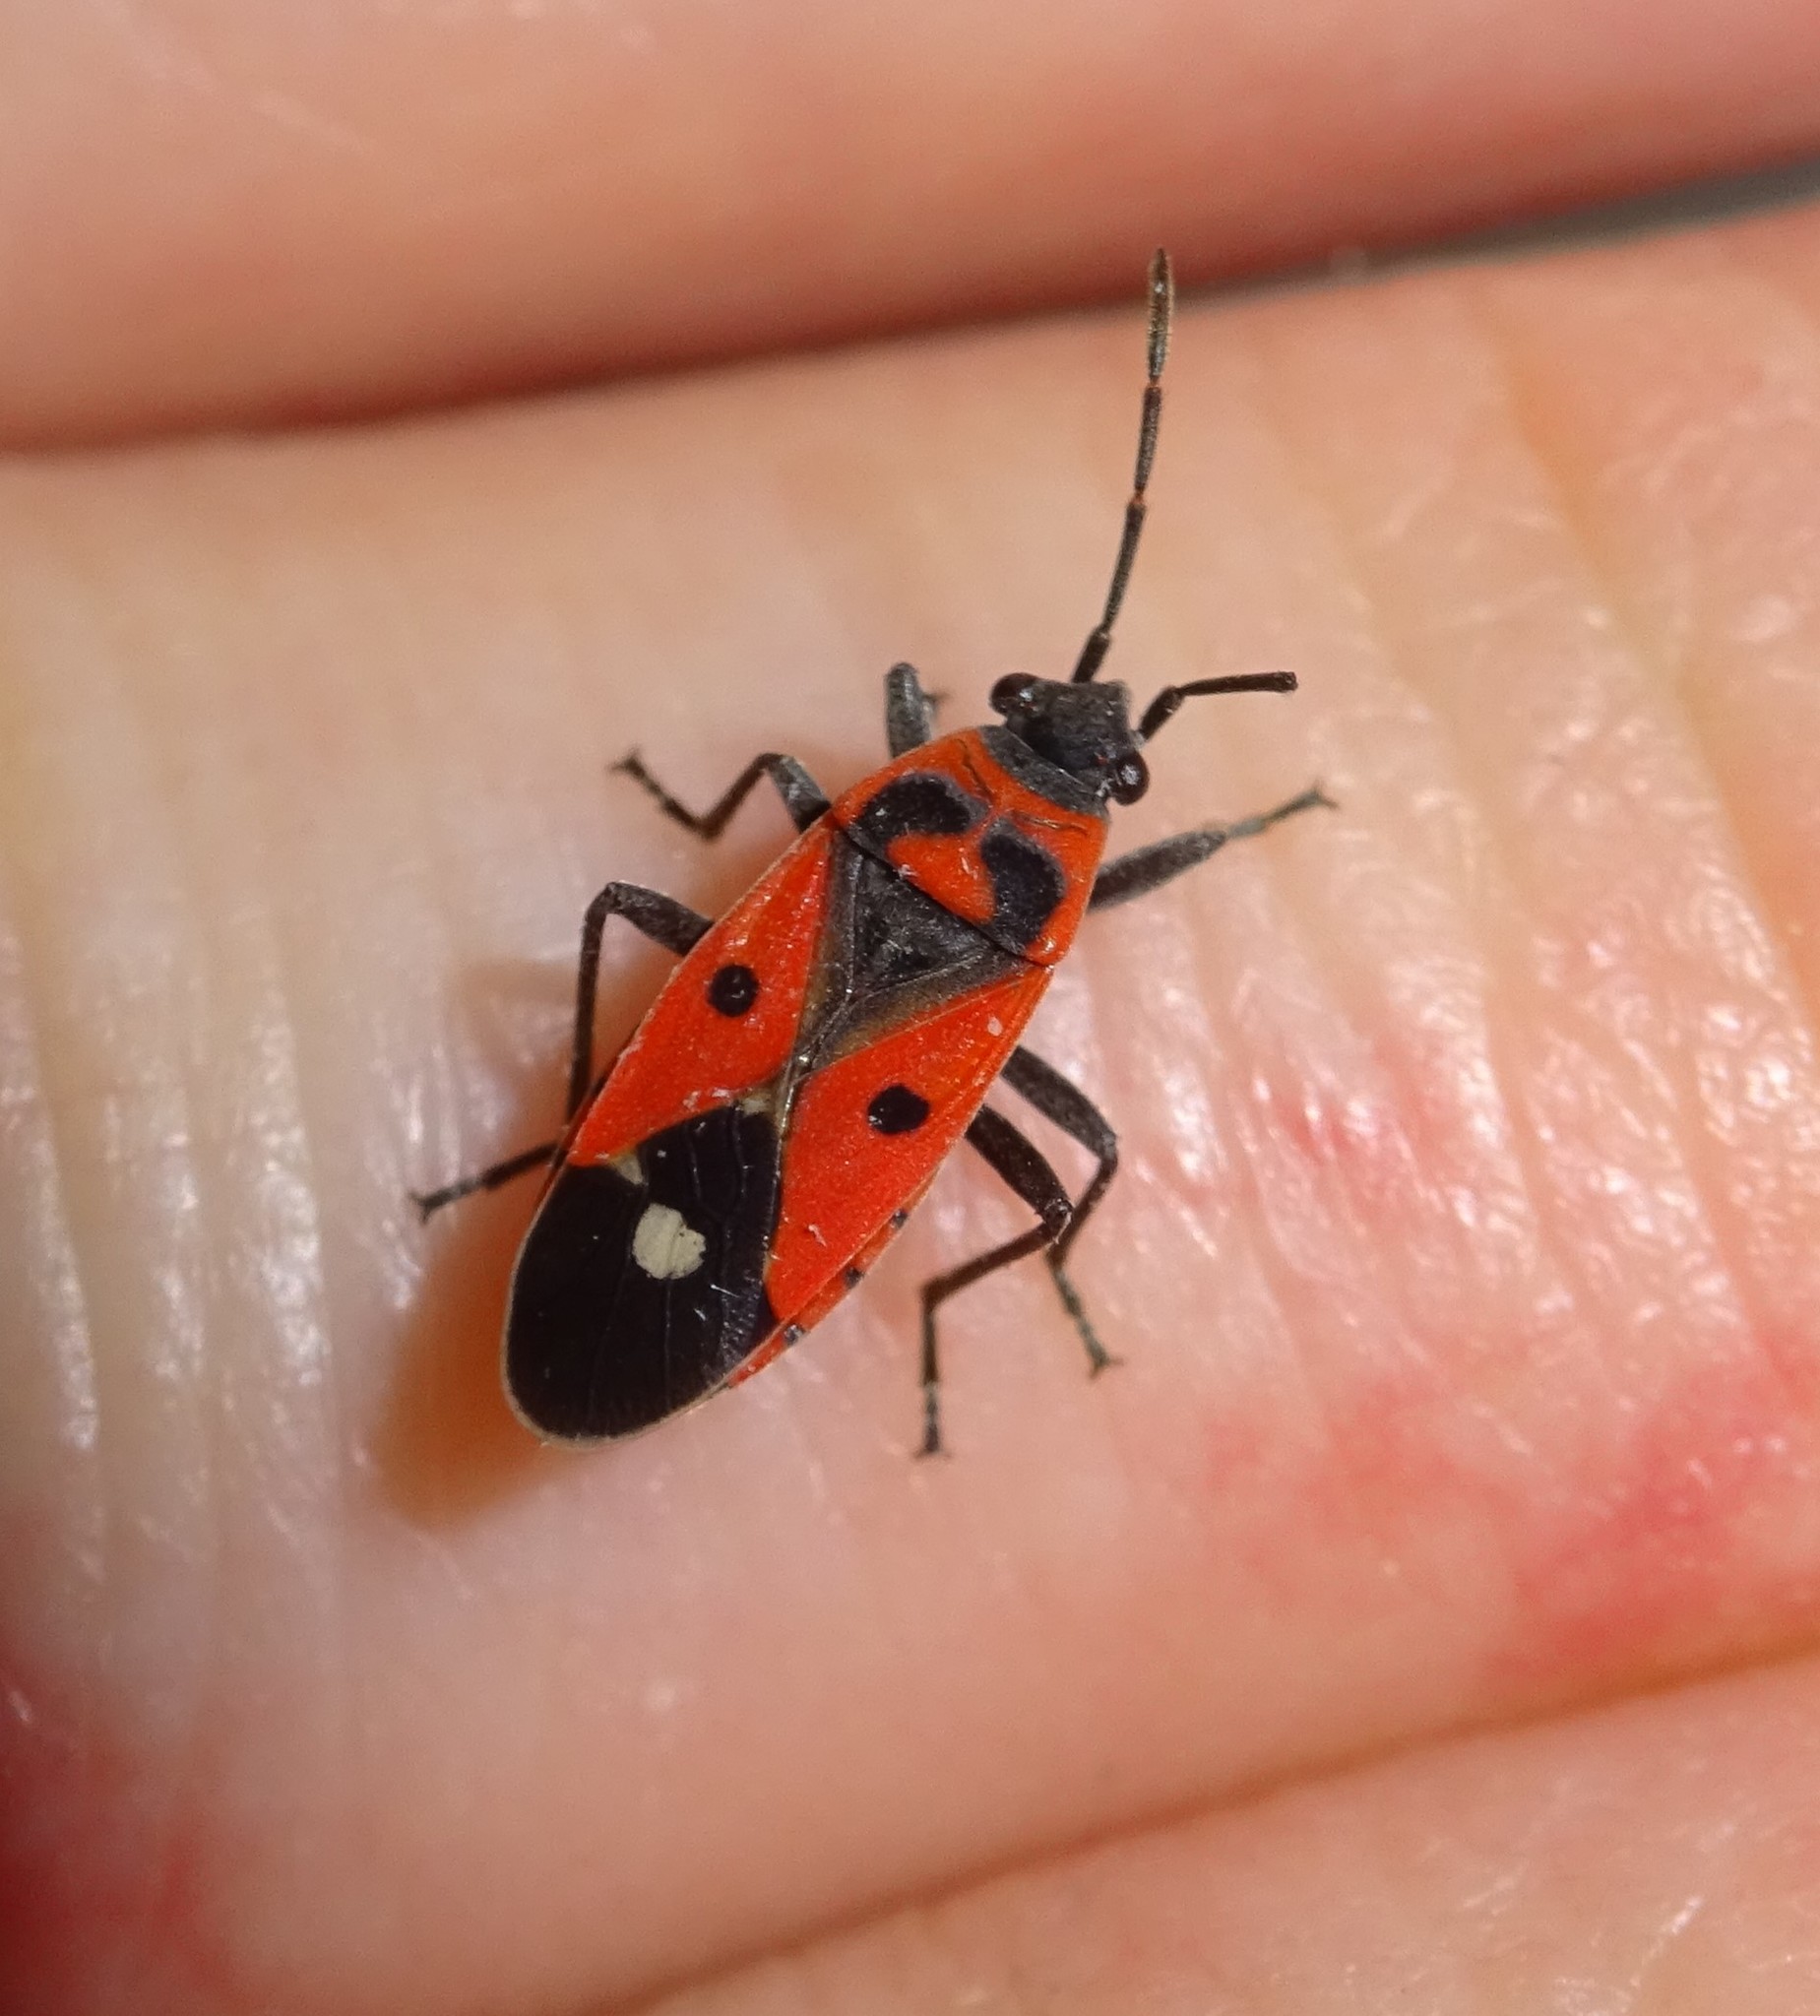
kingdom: Animalia
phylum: Arthropoda
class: Insecta
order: Hemiptera
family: Lygaeidae
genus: Melanocoryphus
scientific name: Melanocoryphus albomaculatus
